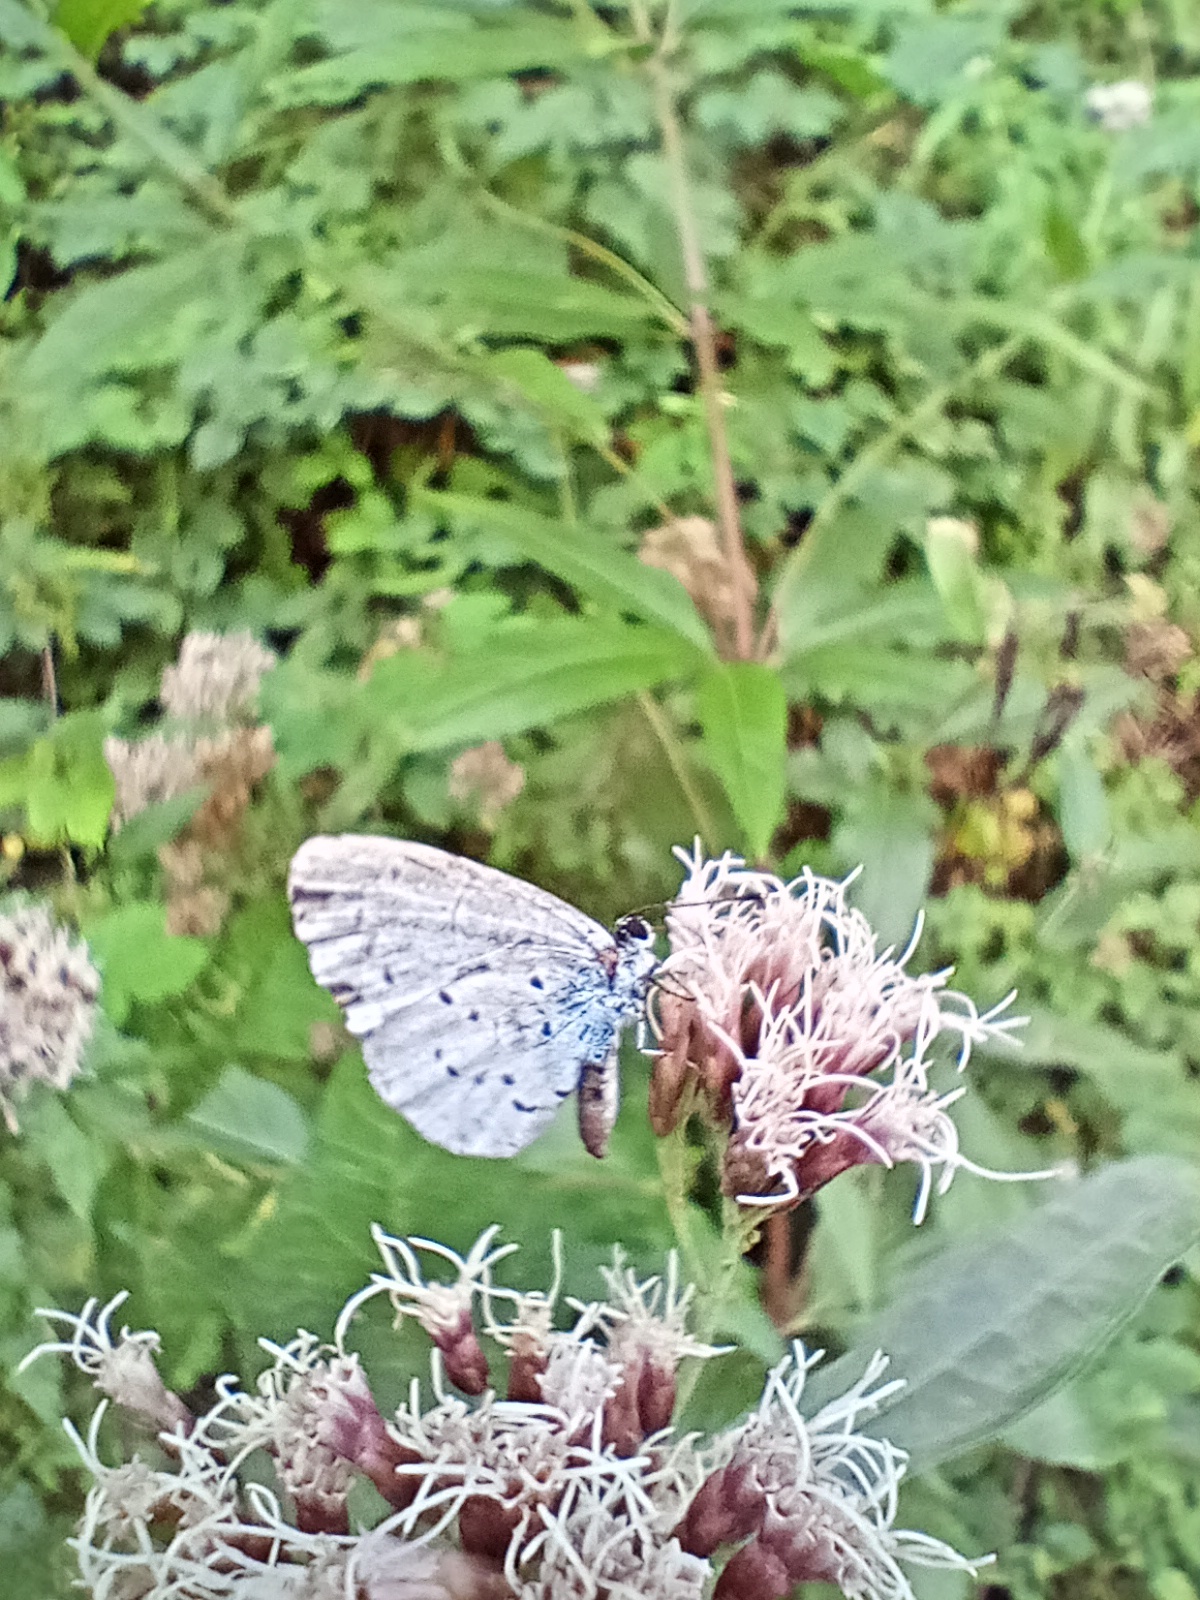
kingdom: Animalia
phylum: Arthropoda
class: Insecta
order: Lepidoptera
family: Lycaenidae
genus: Celastrina
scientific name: Celastrina argiolus
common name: Holly blue
